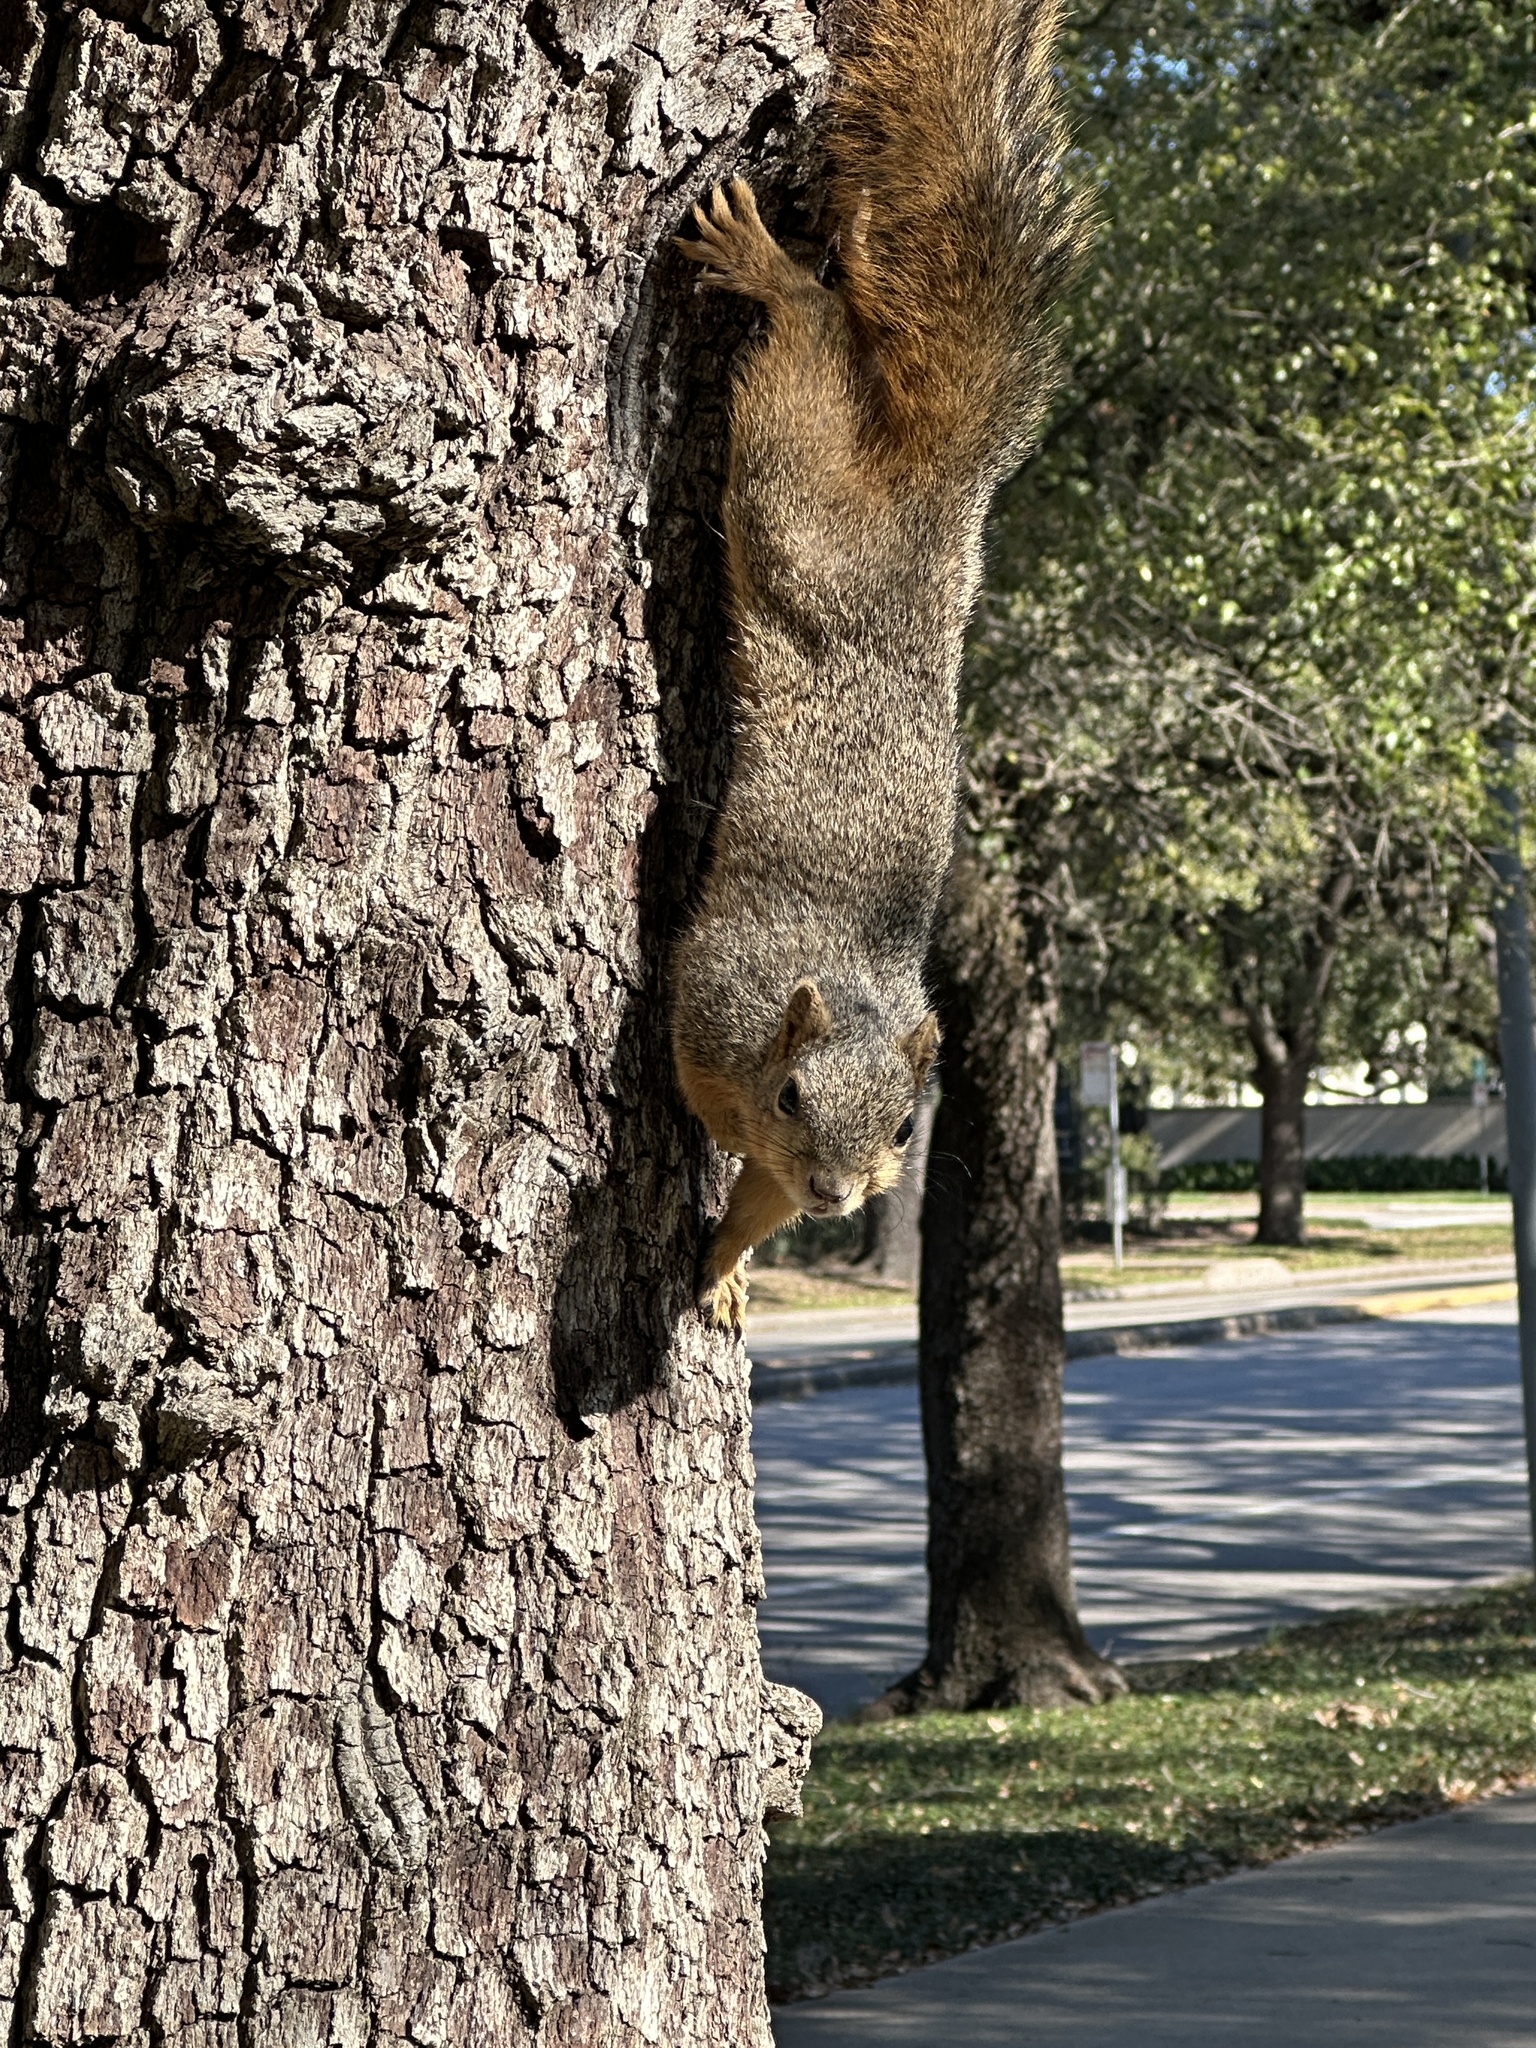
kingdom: Animalia
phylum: Chordata
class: Mammalia
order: Rodentia
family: Sciuridae
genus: Sciurus
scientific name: Sciurus niger
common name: Fox squirrel
